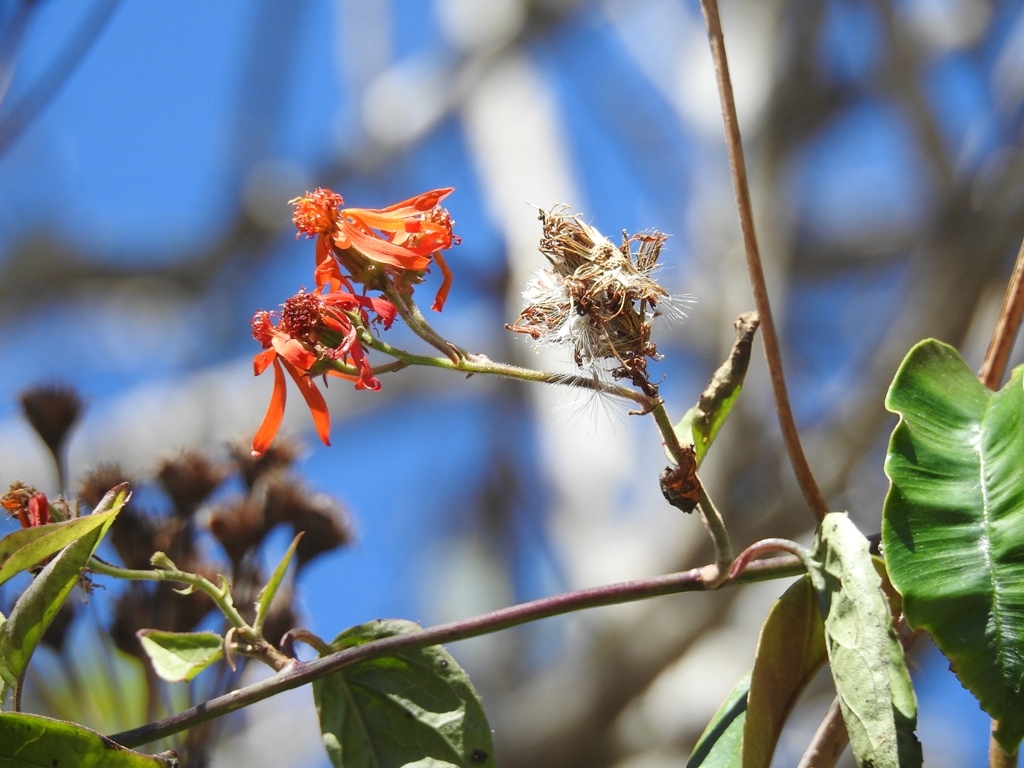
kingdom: Plantae
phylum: Tracheophyta
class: Magnoliopsida
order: Asterales
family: Asteraceae
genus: Pseudogynoxys
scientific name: Pseudogynoxys haenkei
